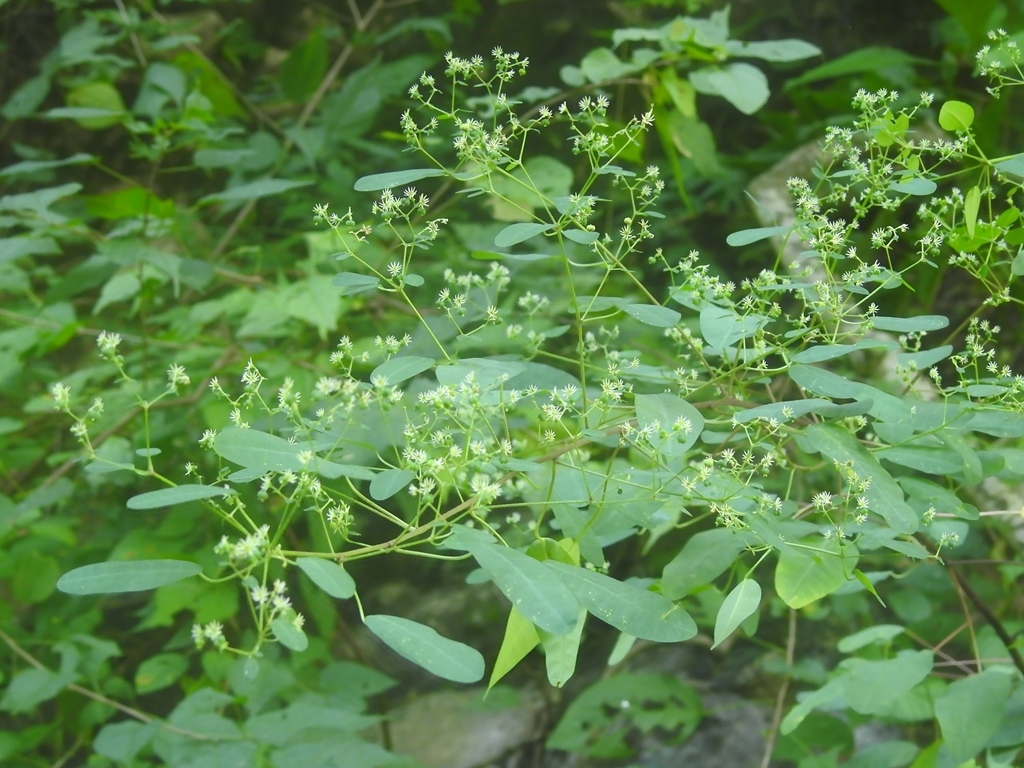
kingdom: Plantae
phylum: Tracheophyta
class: Magnoliopsida
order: Malpighiales
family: Euphorbiaceae
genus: Euphorbia
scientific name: Euphorbia segoviensis
